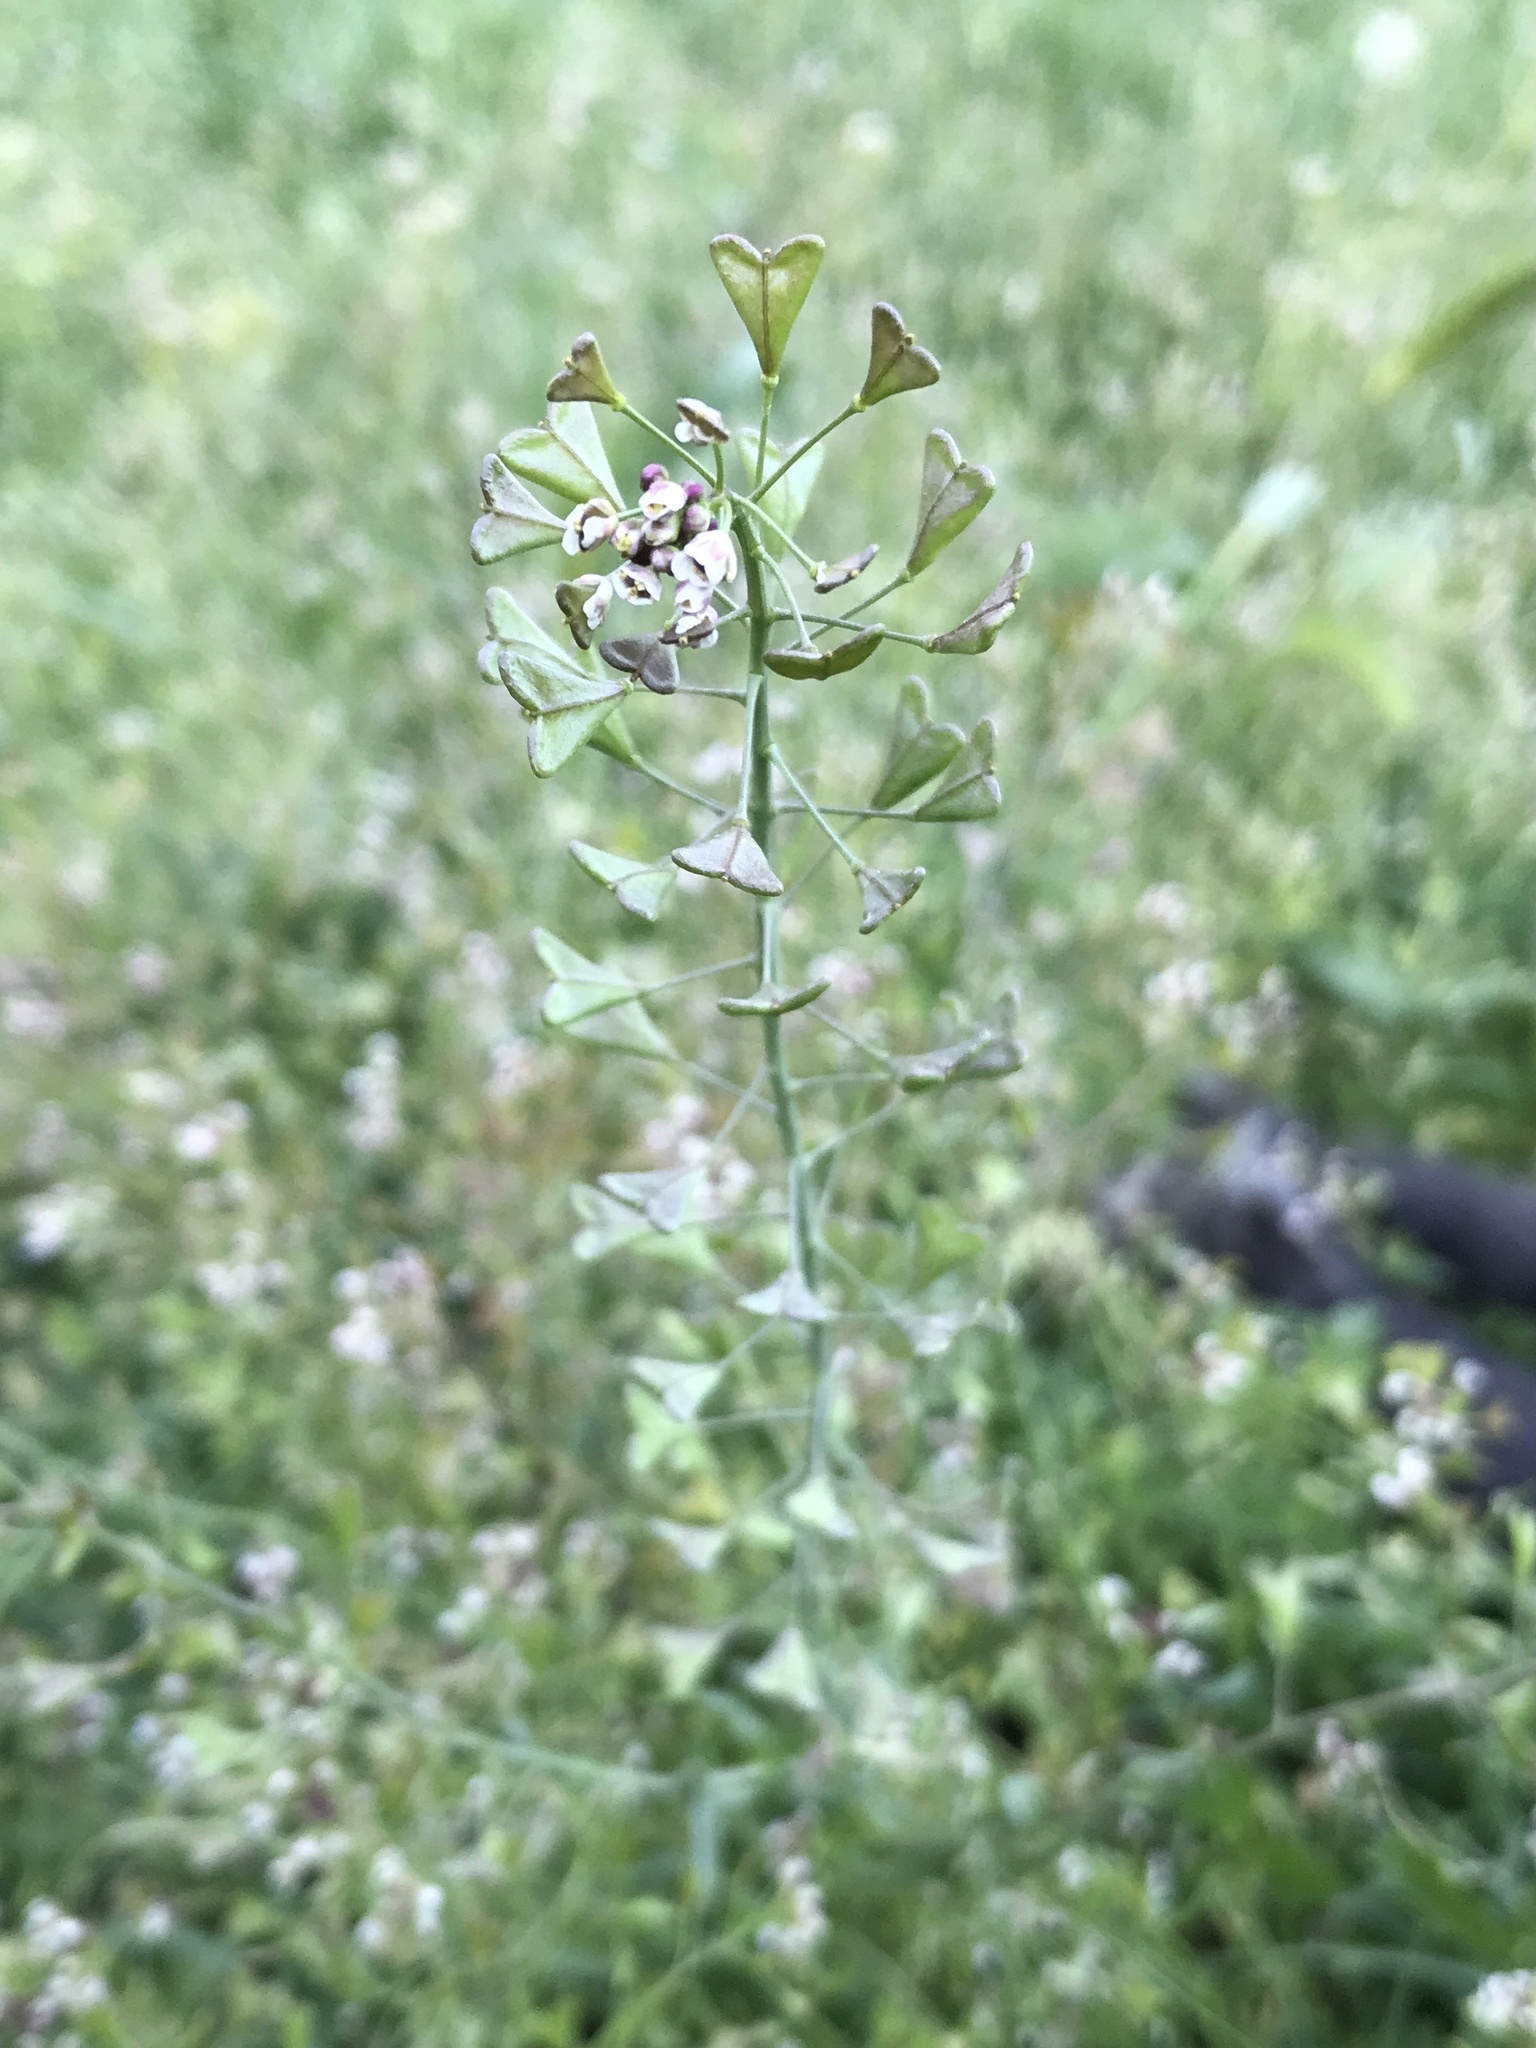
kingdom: Plantae
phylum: Tracheophyta
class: Magnoliopsida
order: Brassicales
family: Brassicaceae
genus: Capsella
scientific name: Capsella bursa-pastoris
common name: Shepherd's purse
